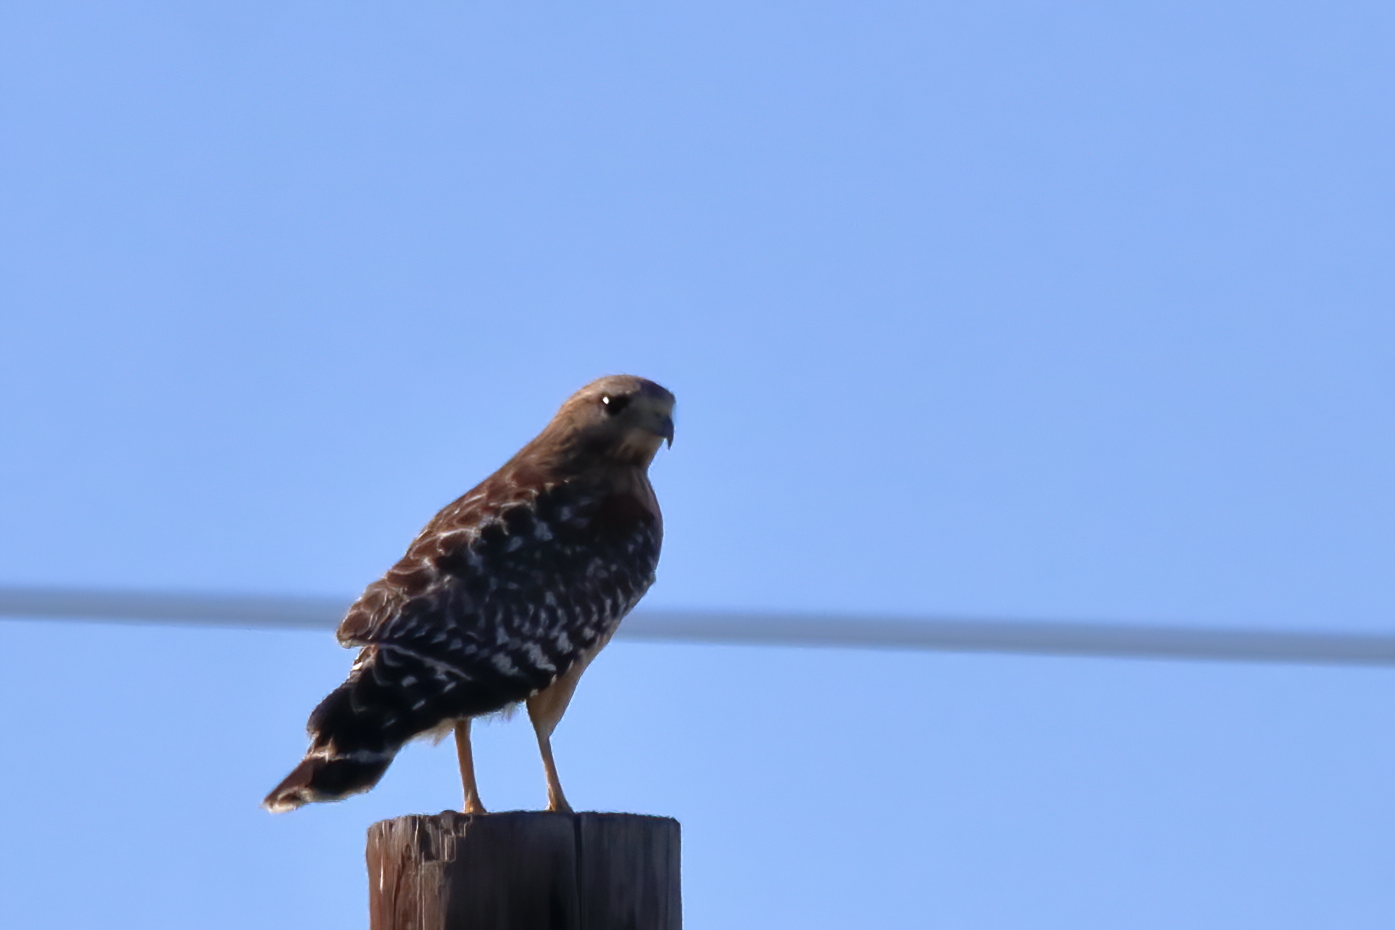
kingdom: Animalia
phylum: Chordata
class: Aves
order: Accipitriformes
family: Accipitridae
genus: Buteo
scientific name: Buteo lineatus
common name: Red-shouldered hawk
